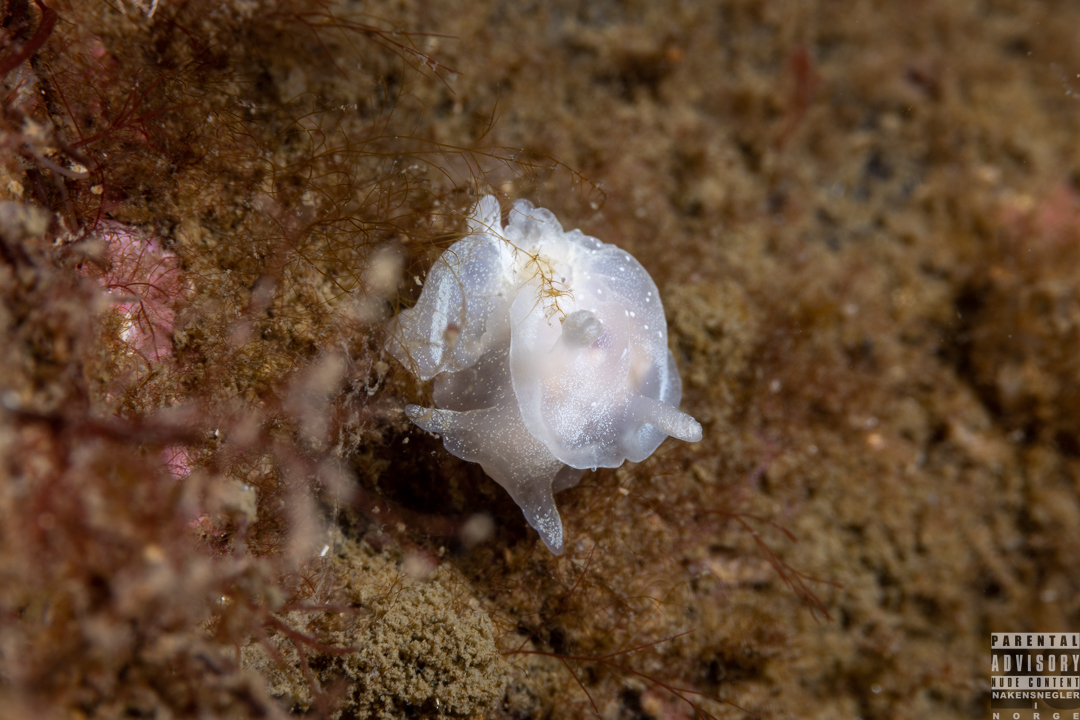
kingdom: Animalia
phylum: Mollusca
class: Gastropoda
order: Nudibranchia
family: Goniodorididae
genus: Okenia
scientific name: Okenia
